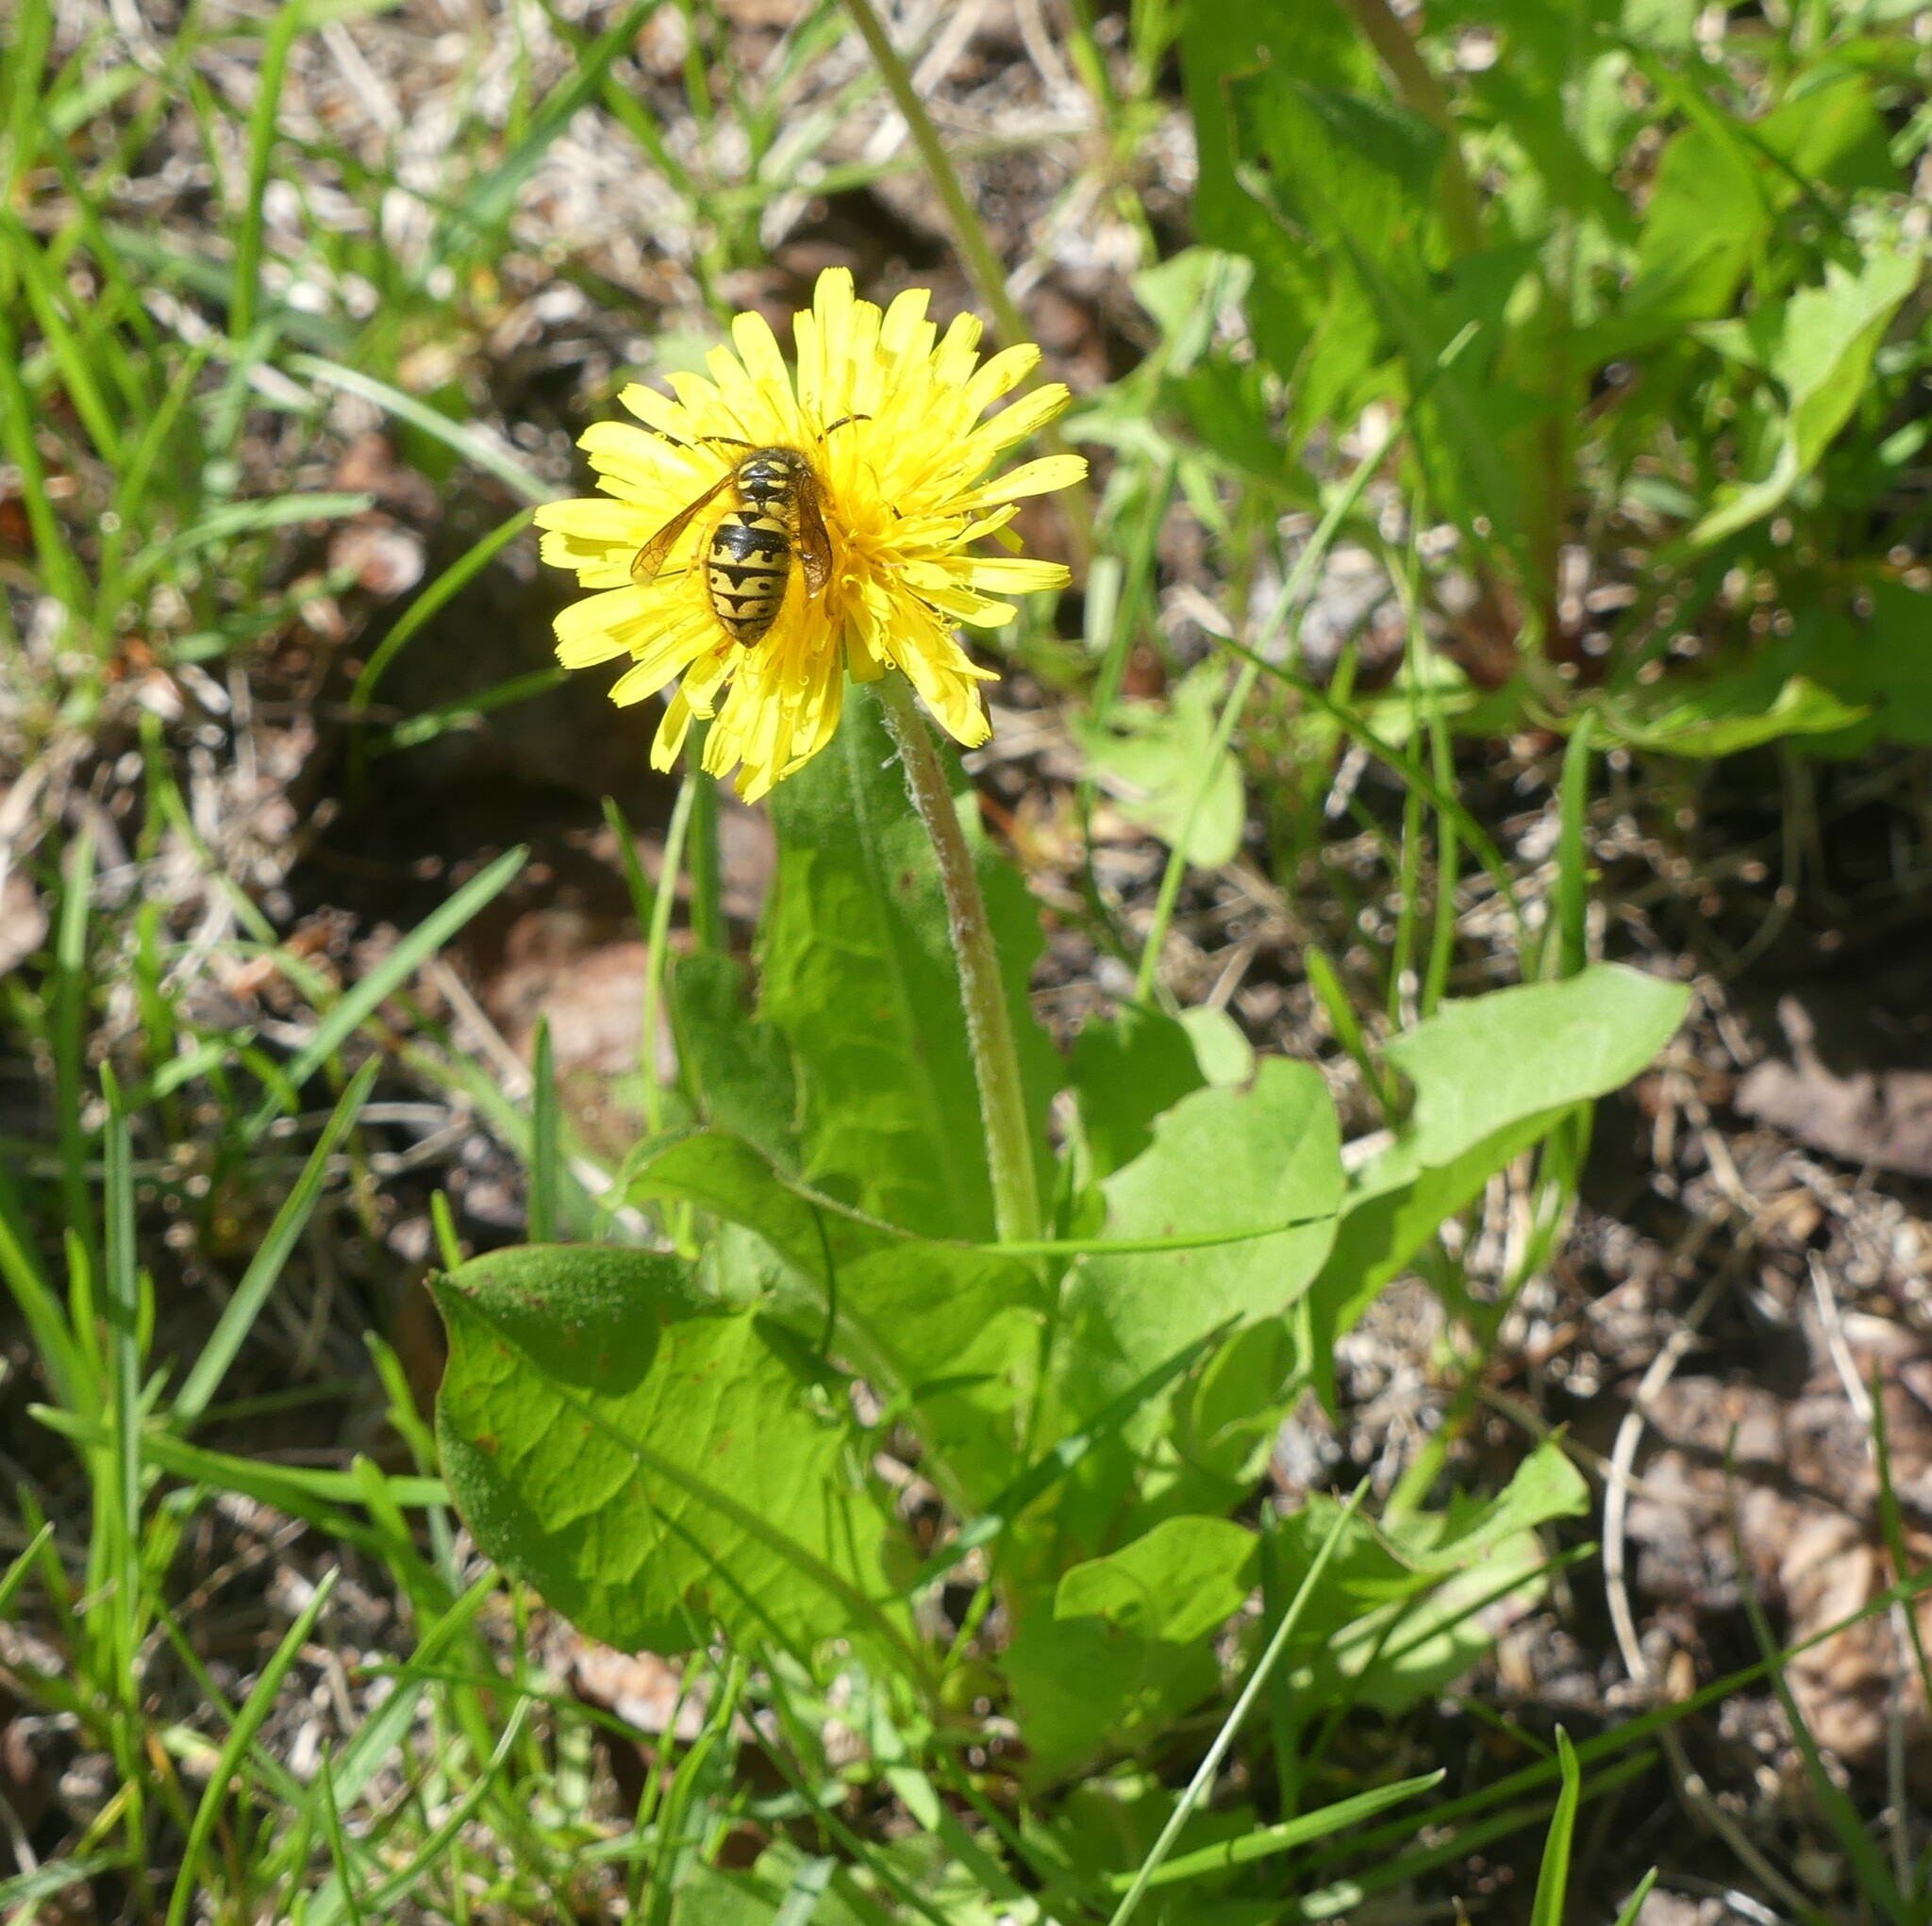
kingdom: Animalia
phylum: Arthropoda
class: Insecta
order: Hymenoptera
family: Vespidae
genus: Dolichovespula
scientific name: Dolichovespula arenaria
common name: Aerial yellowjacket
